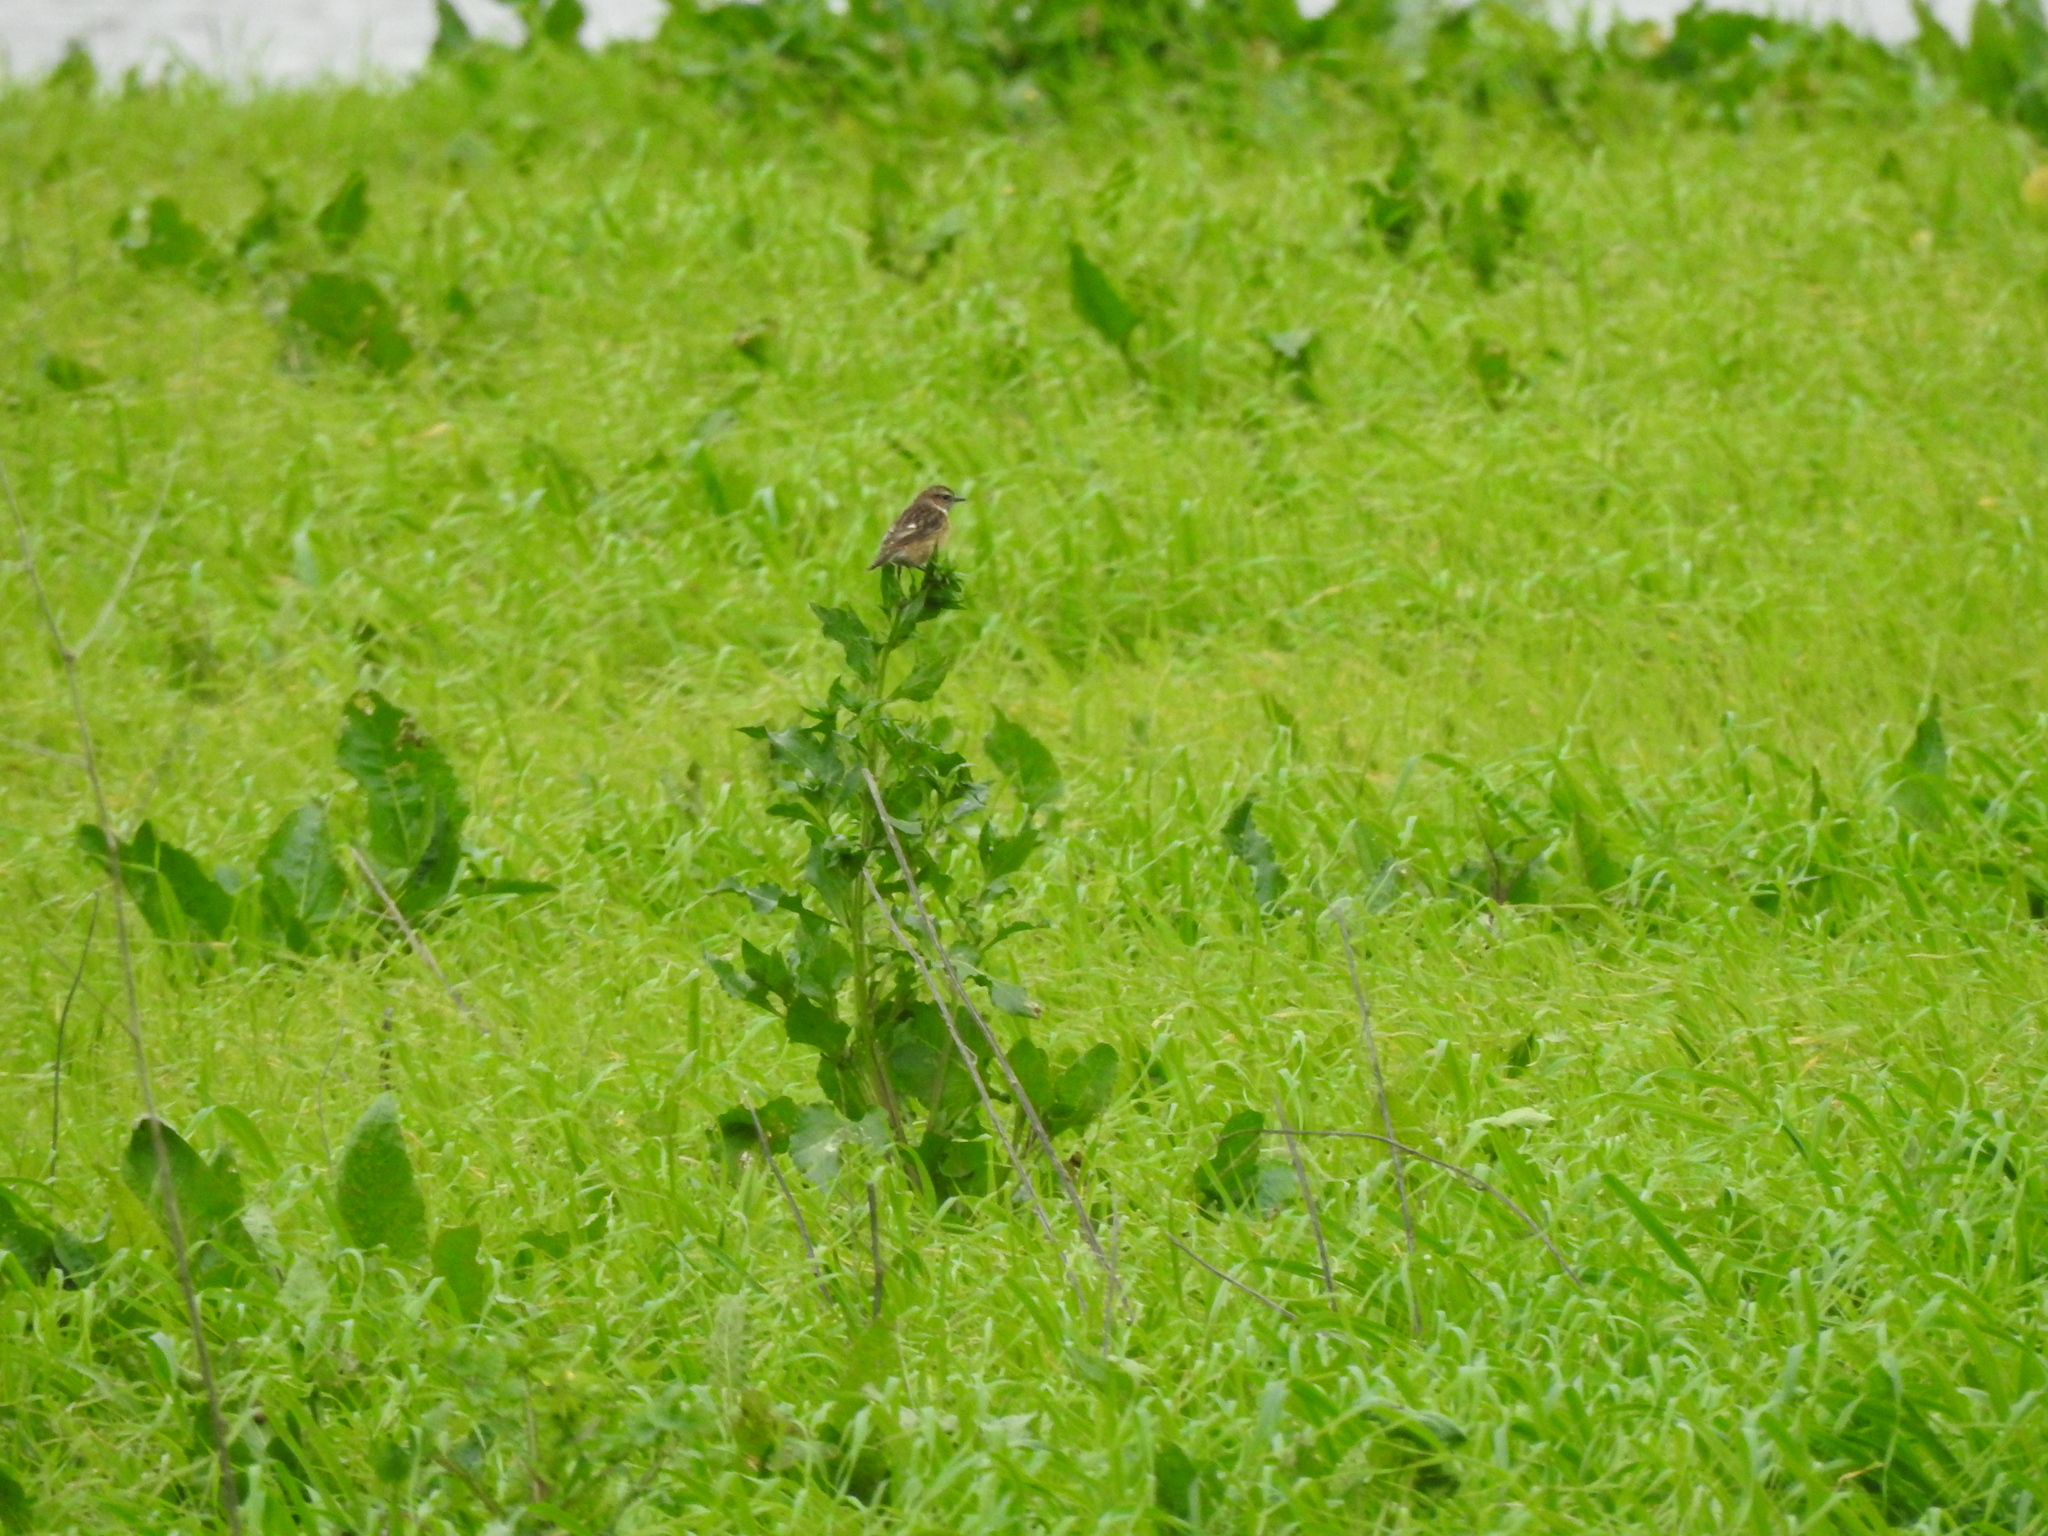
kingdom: Animalia
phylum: Chordata
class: Aves
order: Passeriformes
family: Muscicapidae
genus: Saxicola
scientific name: Saxicola rubicola
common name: European stonechat
